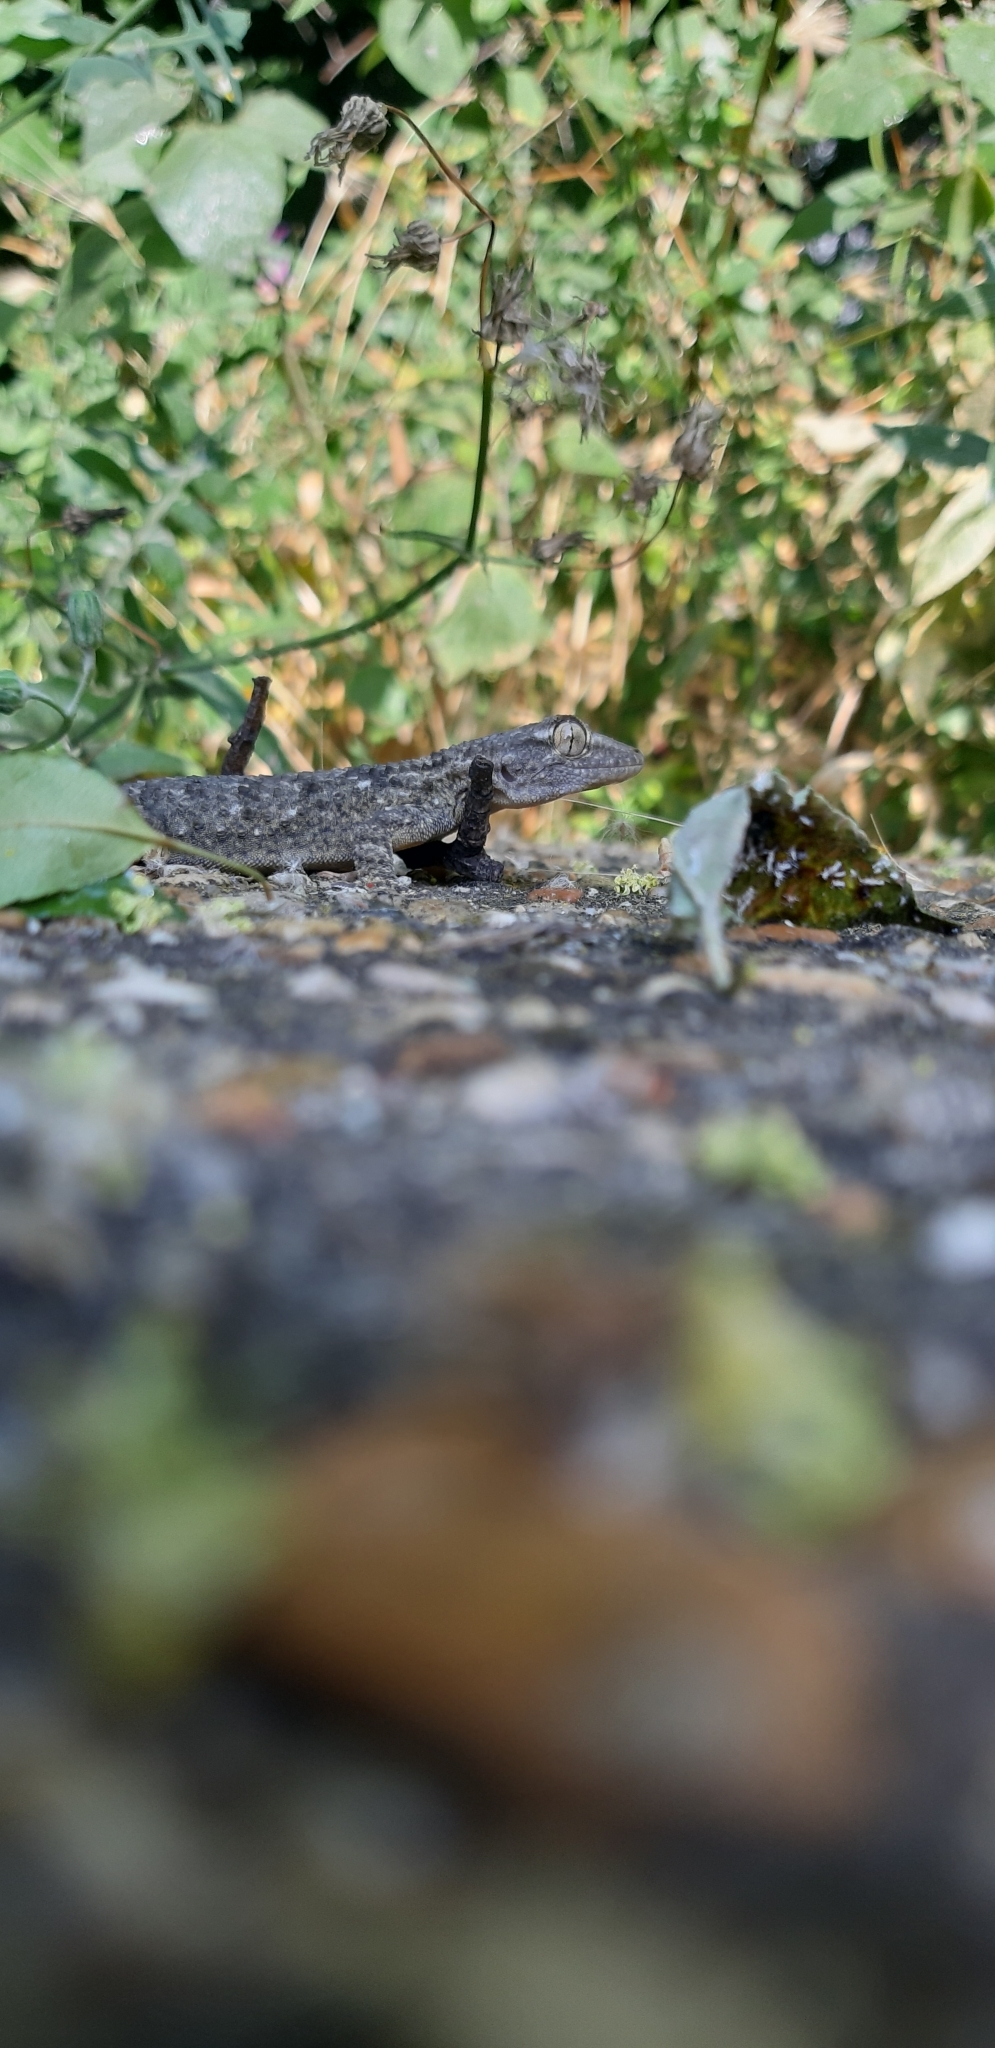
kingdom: Animalia
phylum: Chordata
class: Squamata
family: Phyllodactylidae
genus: Tarentola
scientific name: Tarentola mauritanica
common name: Moorish gecko
